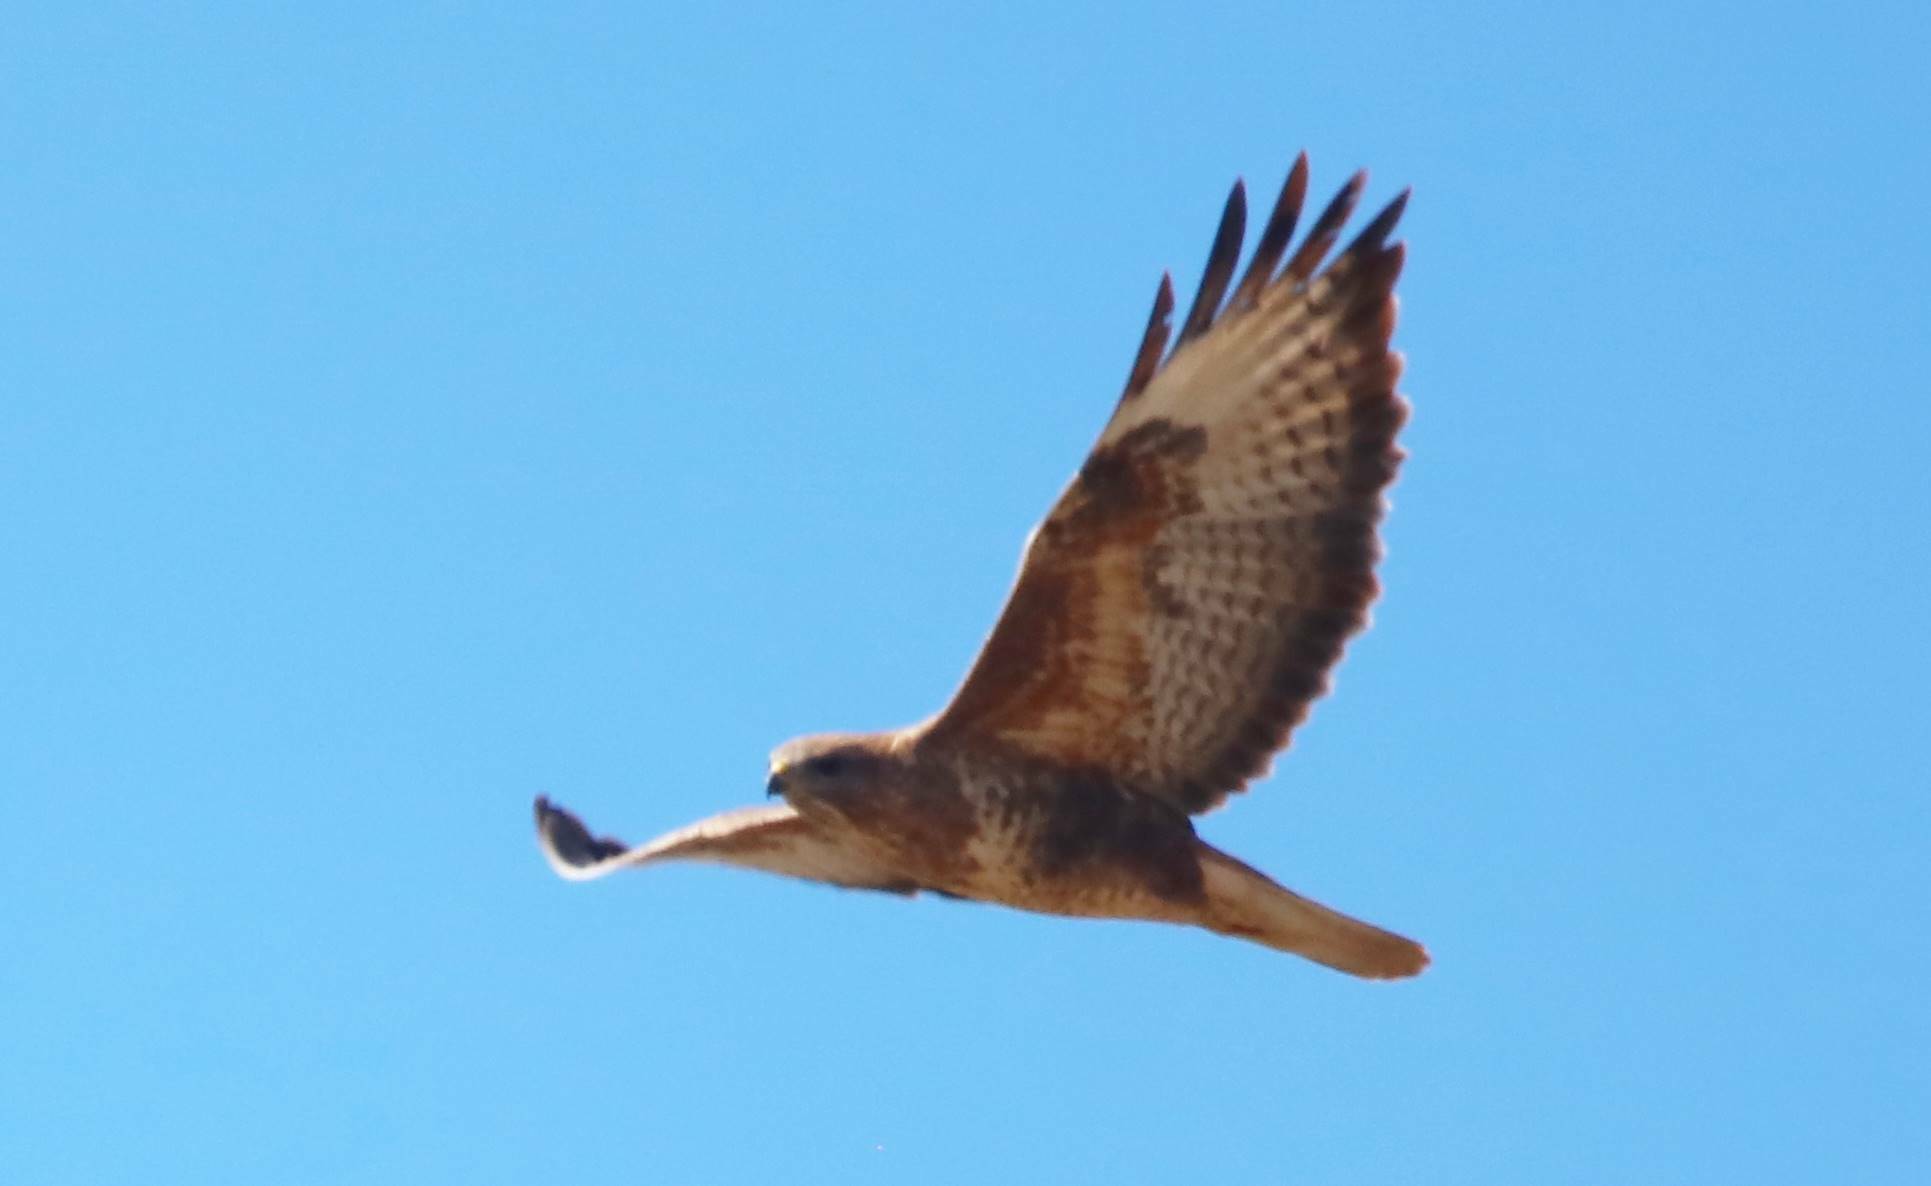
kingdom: Animalia
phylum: Chordata
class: Aves
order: Accipitriformes
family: Accipitridae
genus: Buteo
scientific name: Buteo rufinus
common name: Long-legged buzzard
